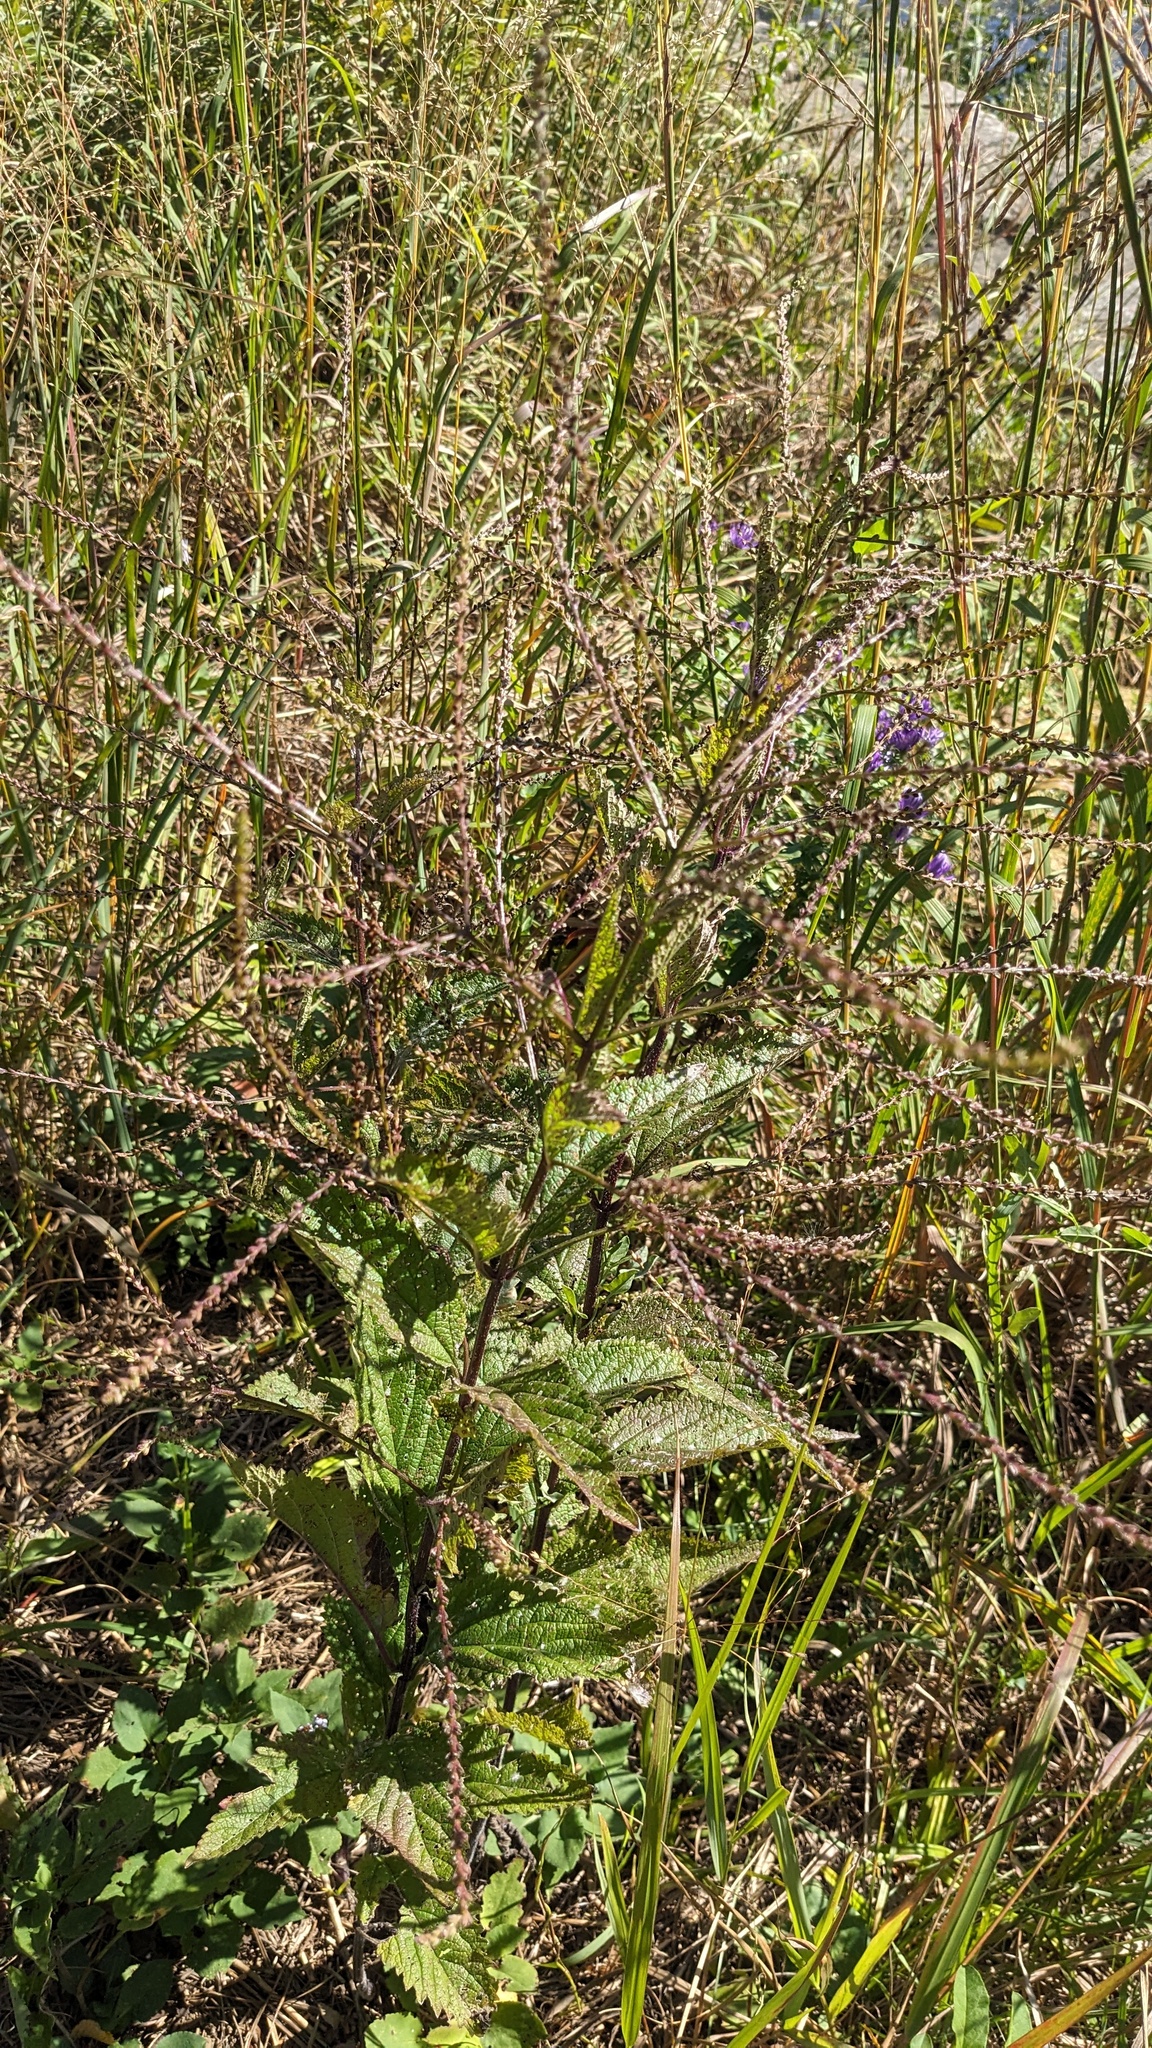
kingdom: Plantae
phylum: Tracheophyta
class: Magnoliopsida
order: Lamiales
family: Verbenaceae
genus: Verbena
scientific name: Verbena urticifolia
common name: Nettle-leaved vervain
